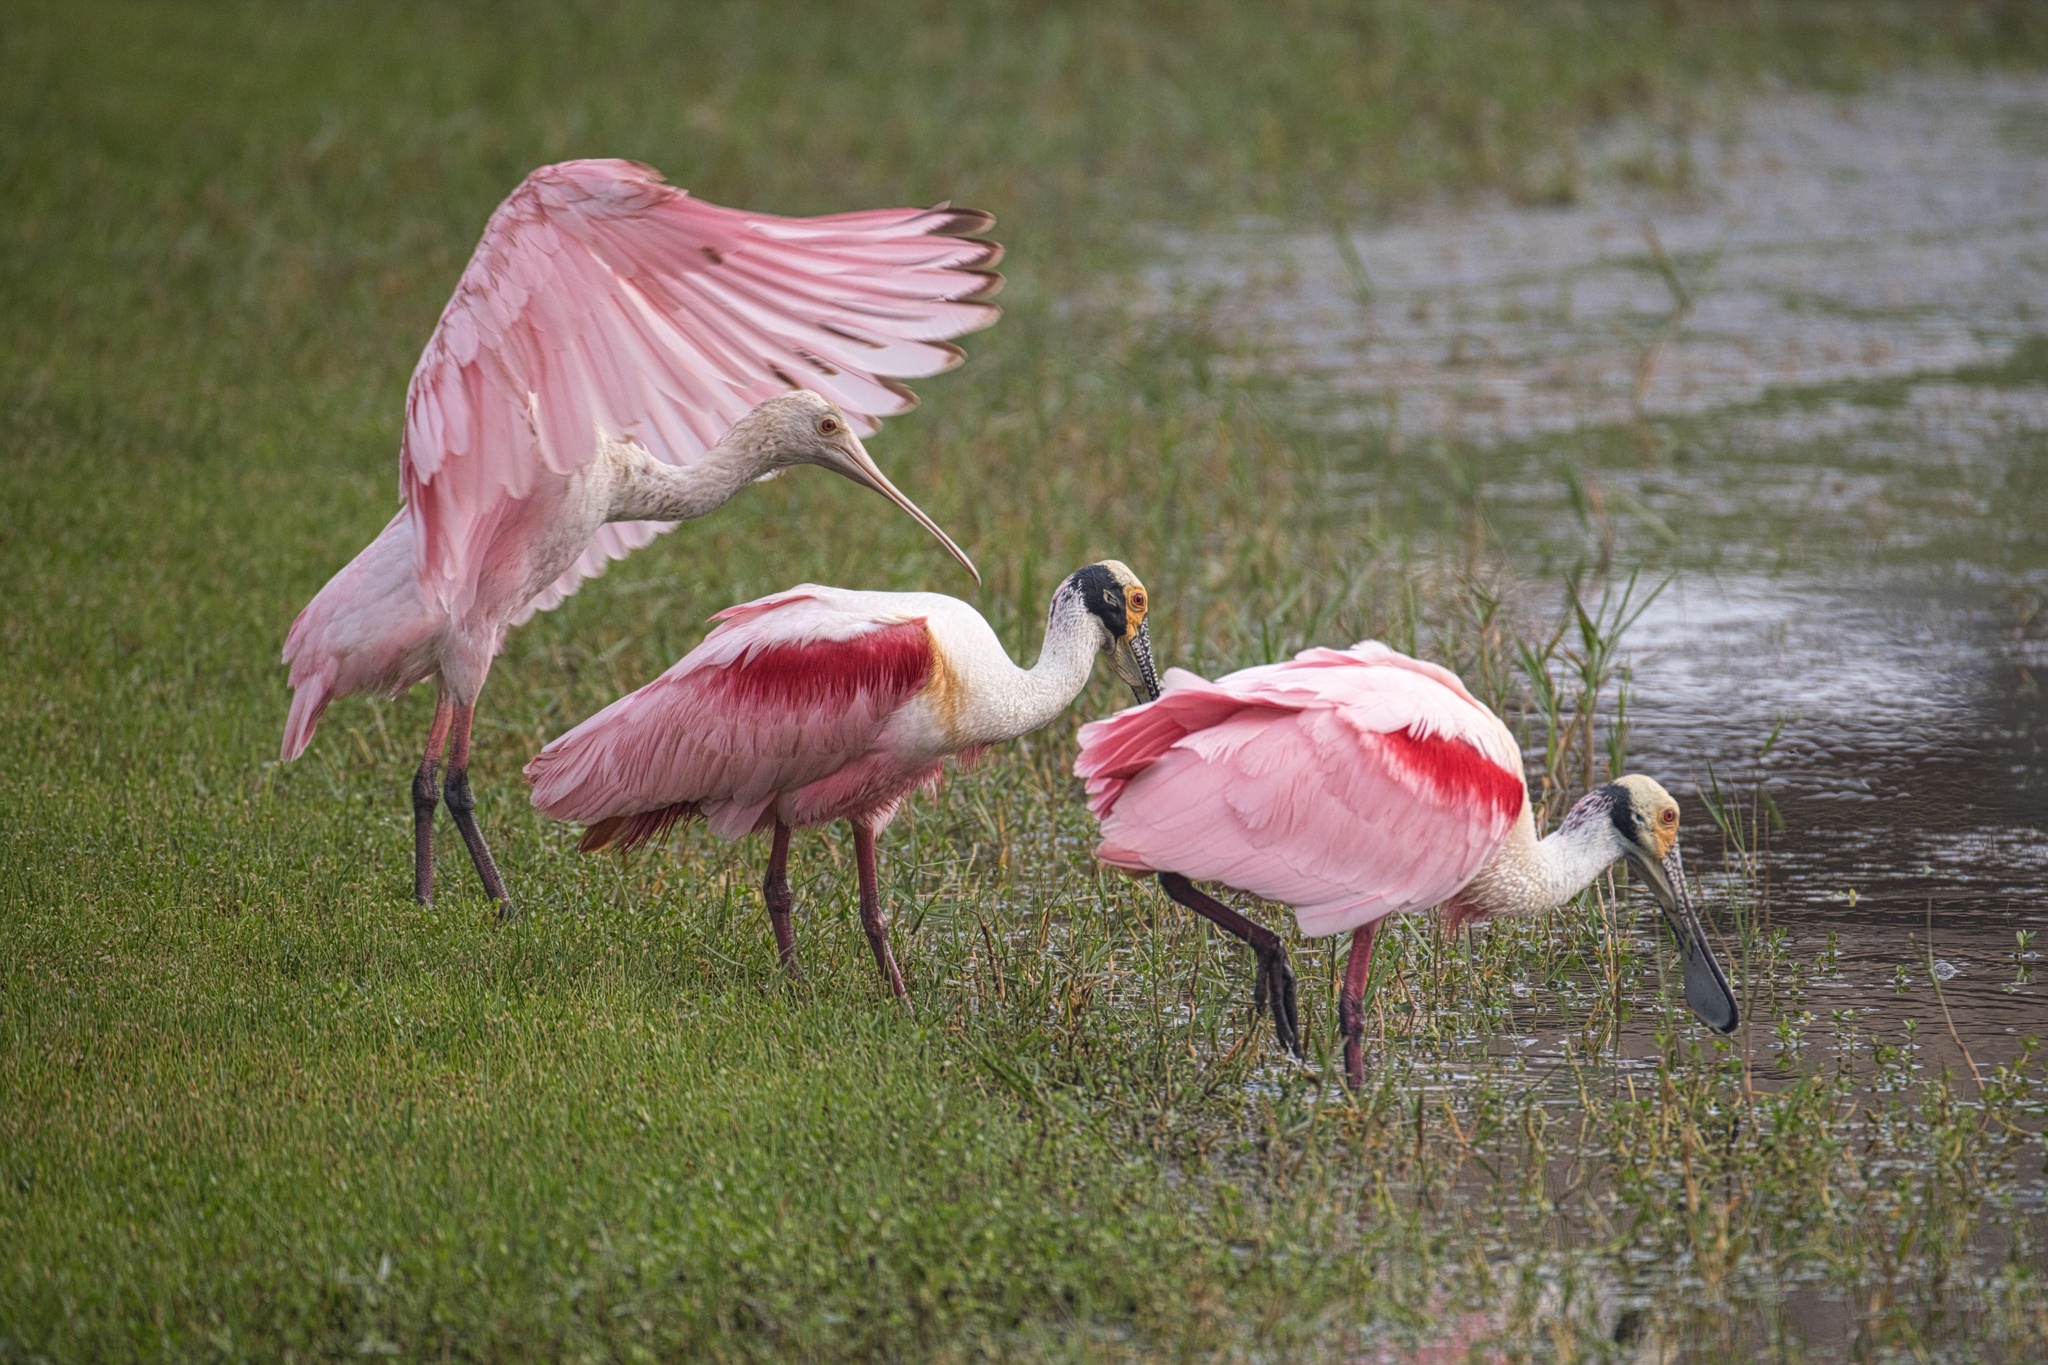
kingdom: Animalia
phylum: Chordata
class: Aves
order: Pelecaniformes
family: Threskiornithidae
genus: Platalea
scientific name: Platalea ajaja
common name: Roseate spoonbill
